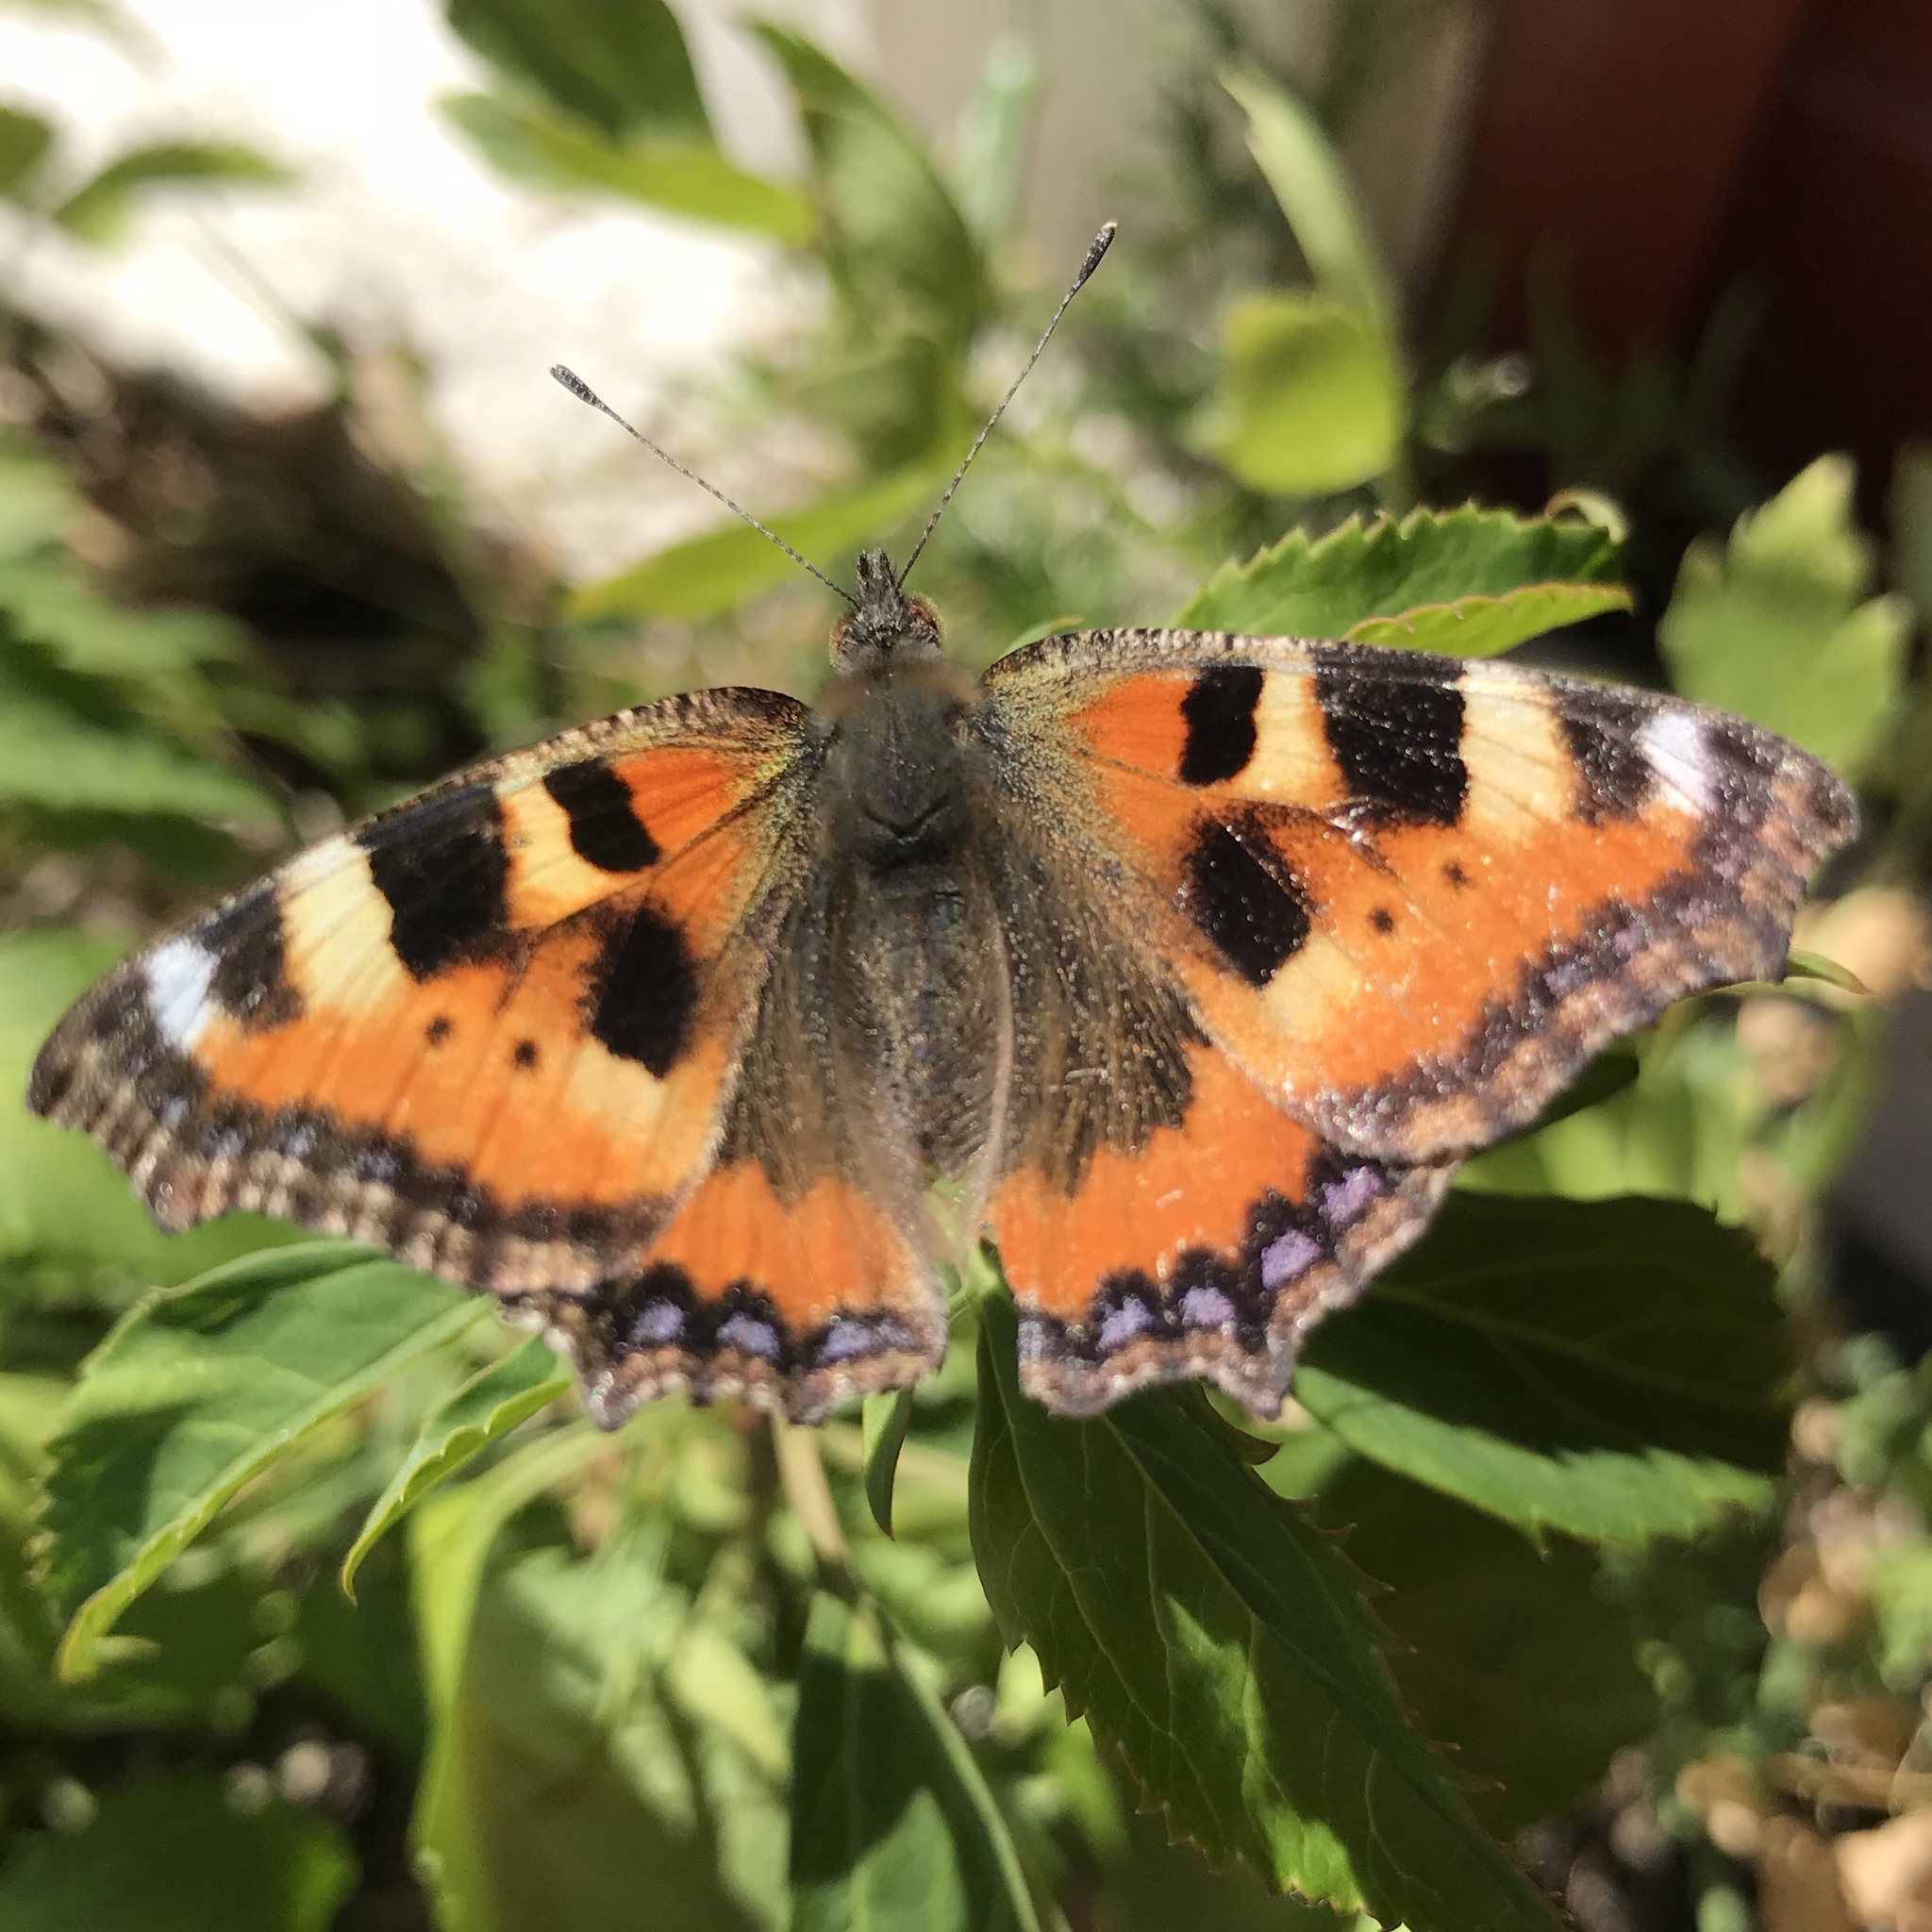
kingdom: Animalia
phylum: Arthropoda
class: Insecta
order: Lepidoptera
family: Nymphalidae
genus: Aglais
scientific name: Aglais urticae
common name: Small tortoiseshell
